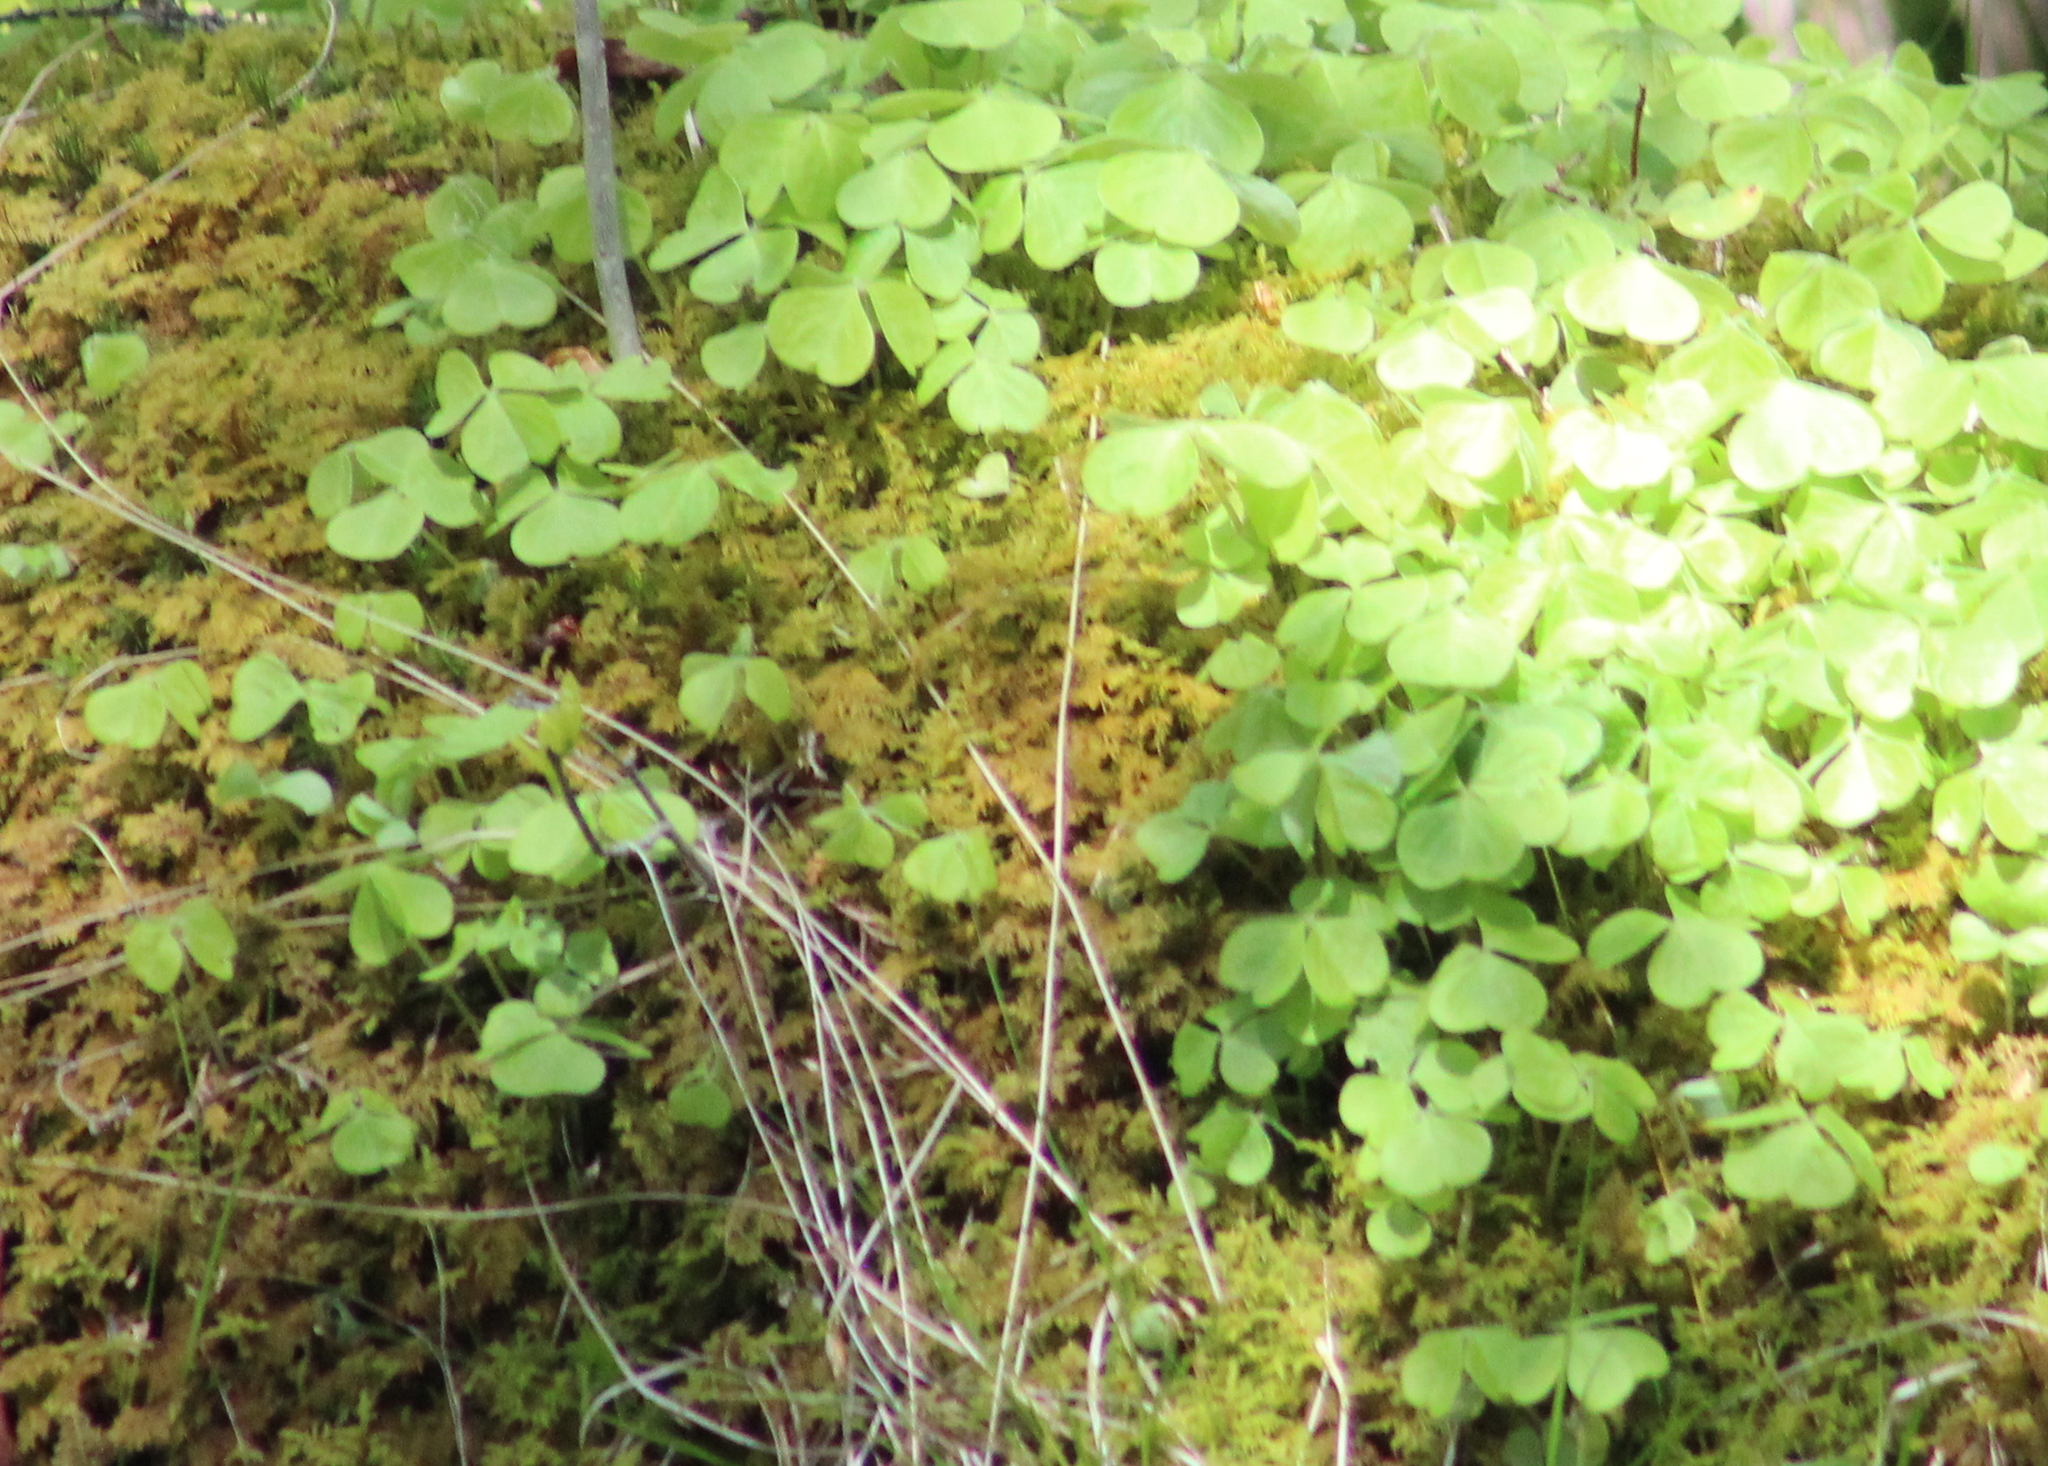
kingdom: Plantae
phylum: Tracheophyta
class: Magnoliopsida
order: Oxalidales
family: Oxalidaceae
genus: Oxalis
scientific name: Oxalis montana
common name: American wood-sorrel
